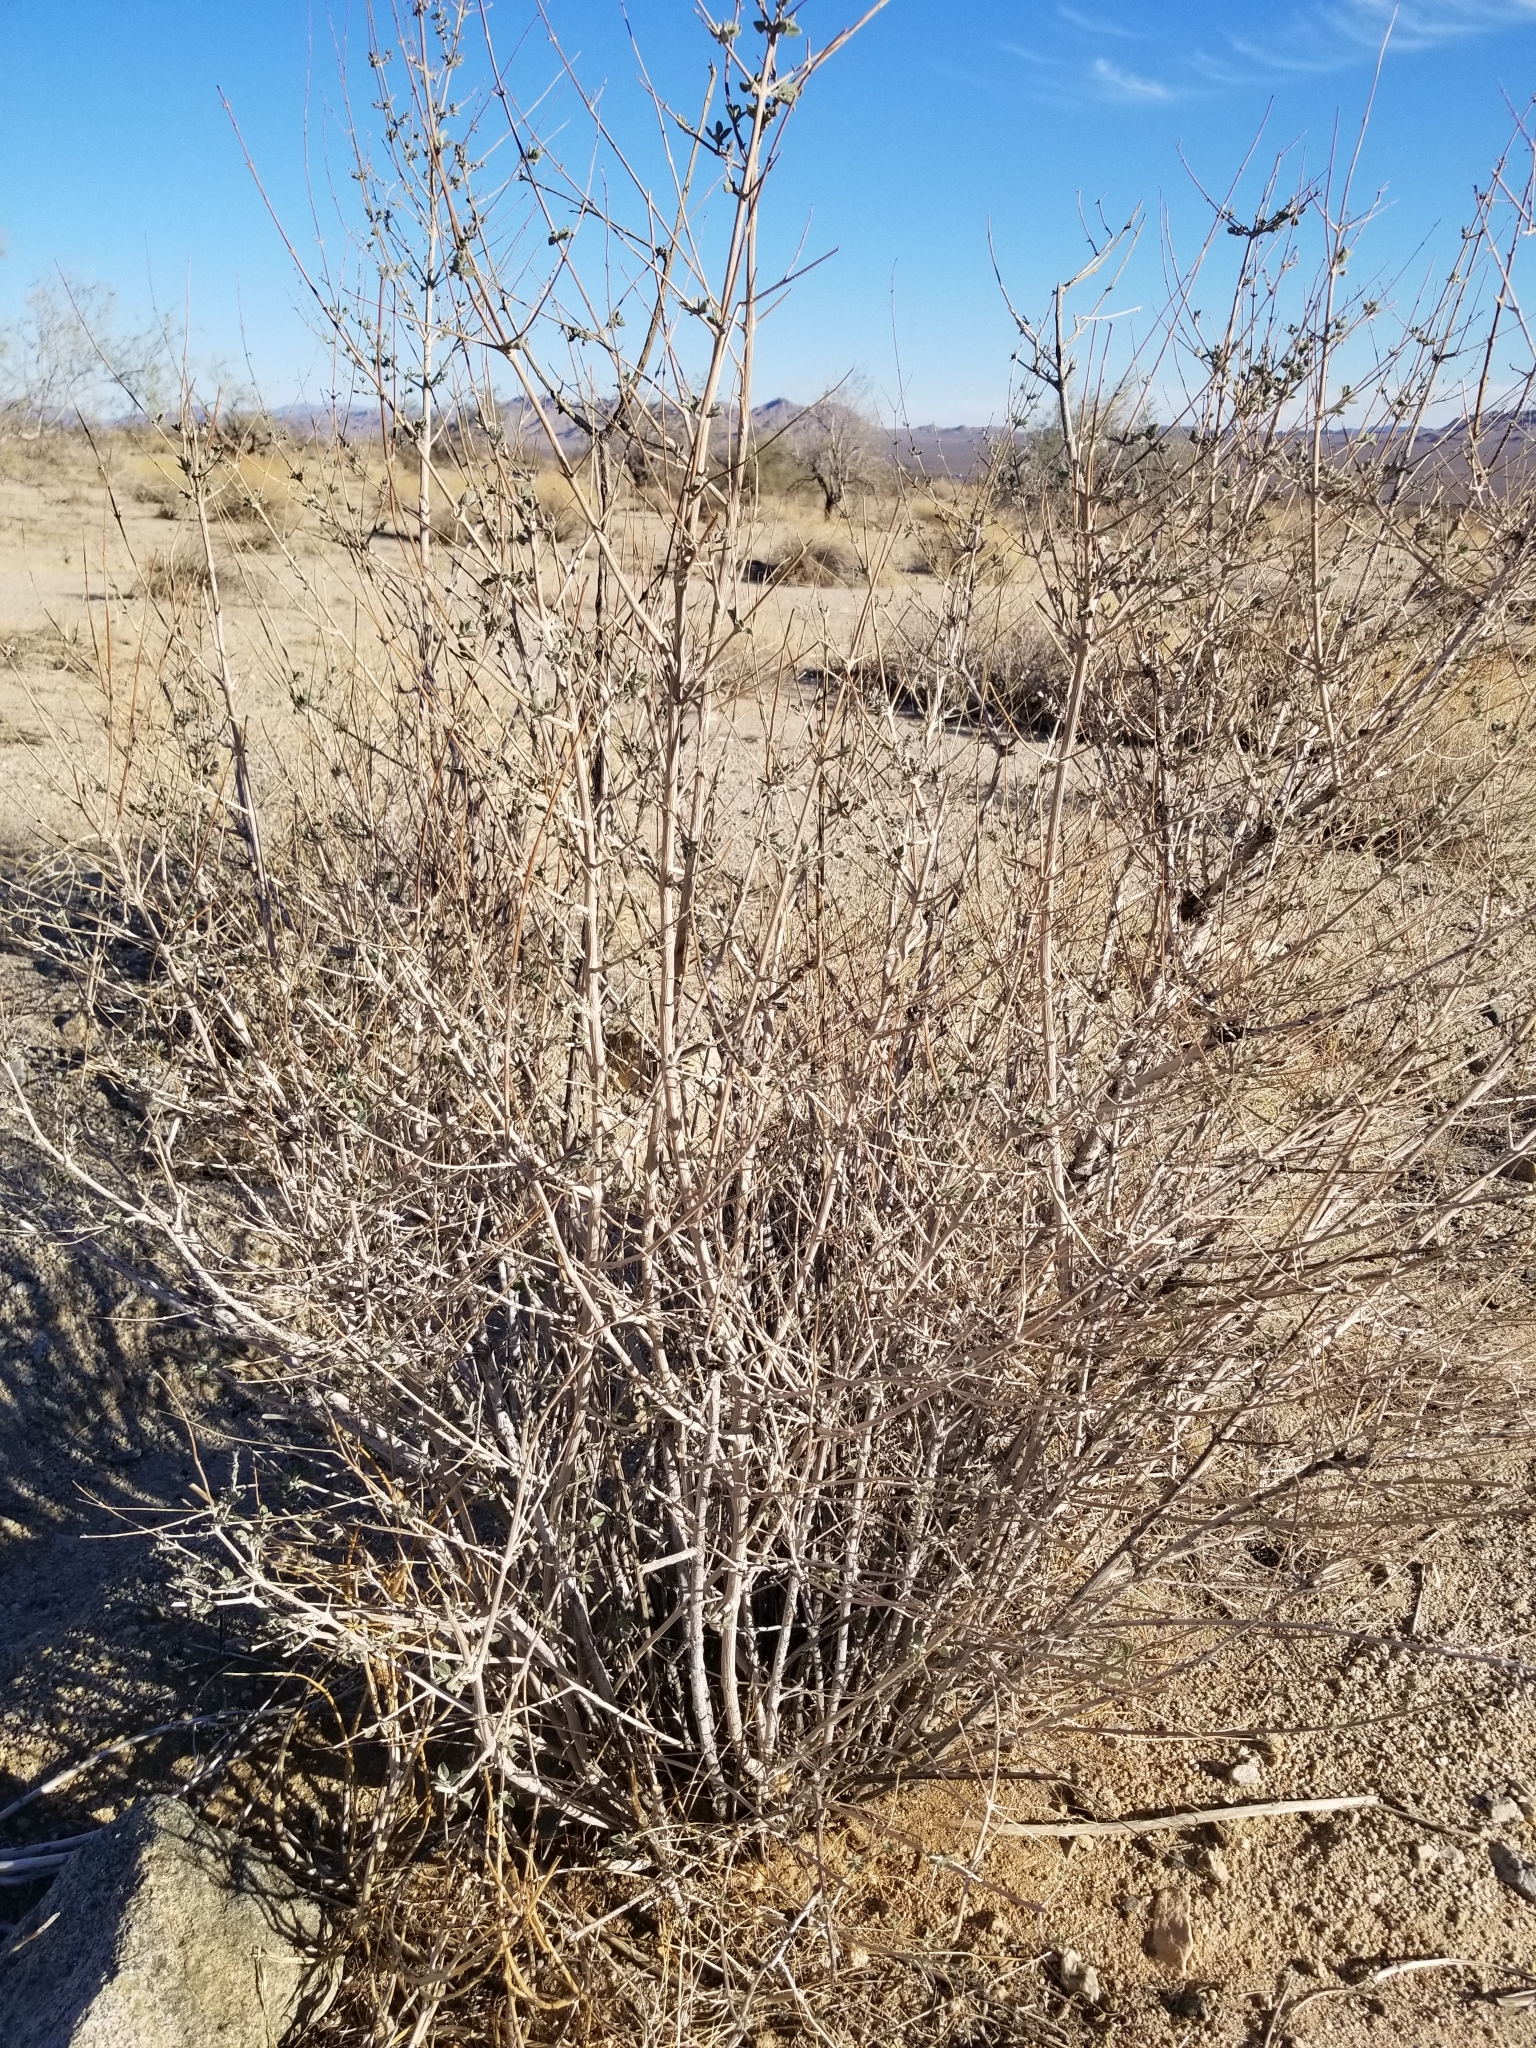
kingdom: Plantae
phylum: Tracheophyta
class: Magnoliopsida
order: Lamiales
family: Lamiaceae
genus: Condea
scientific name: Condea emoryi
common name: Chia
